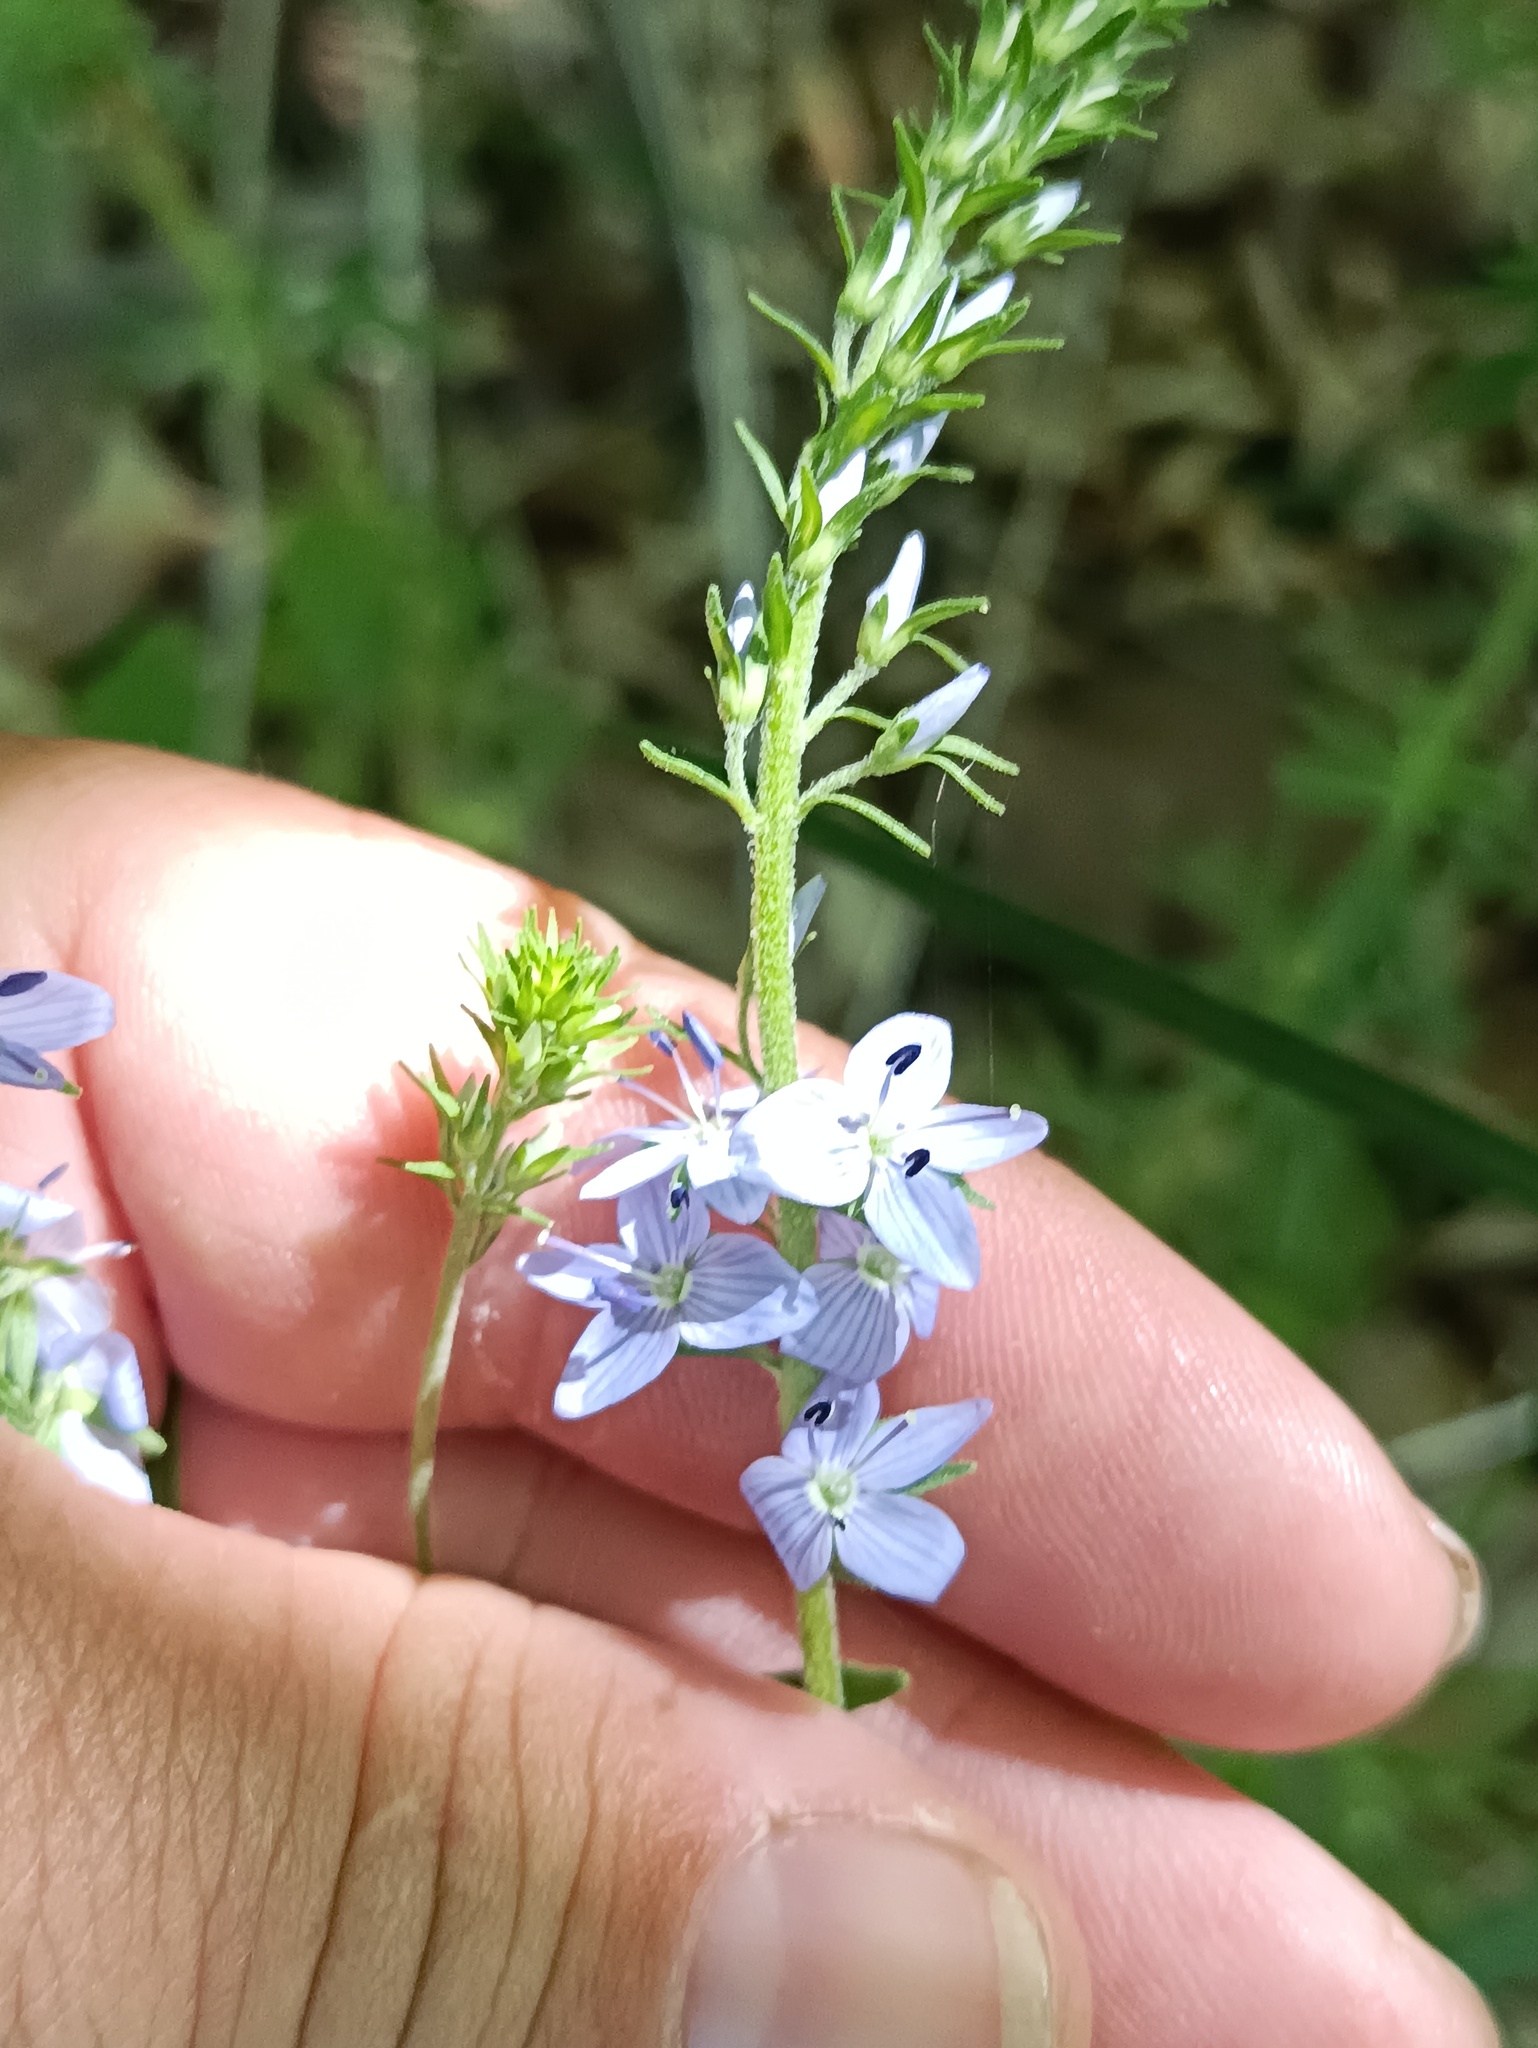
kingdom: Plantae
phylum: Tracheophyta
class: Magnoliopsida
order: Lamiales
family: Plantaginaceae
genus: Veronica
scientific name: Veronica austriaca
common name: Large speedwell
